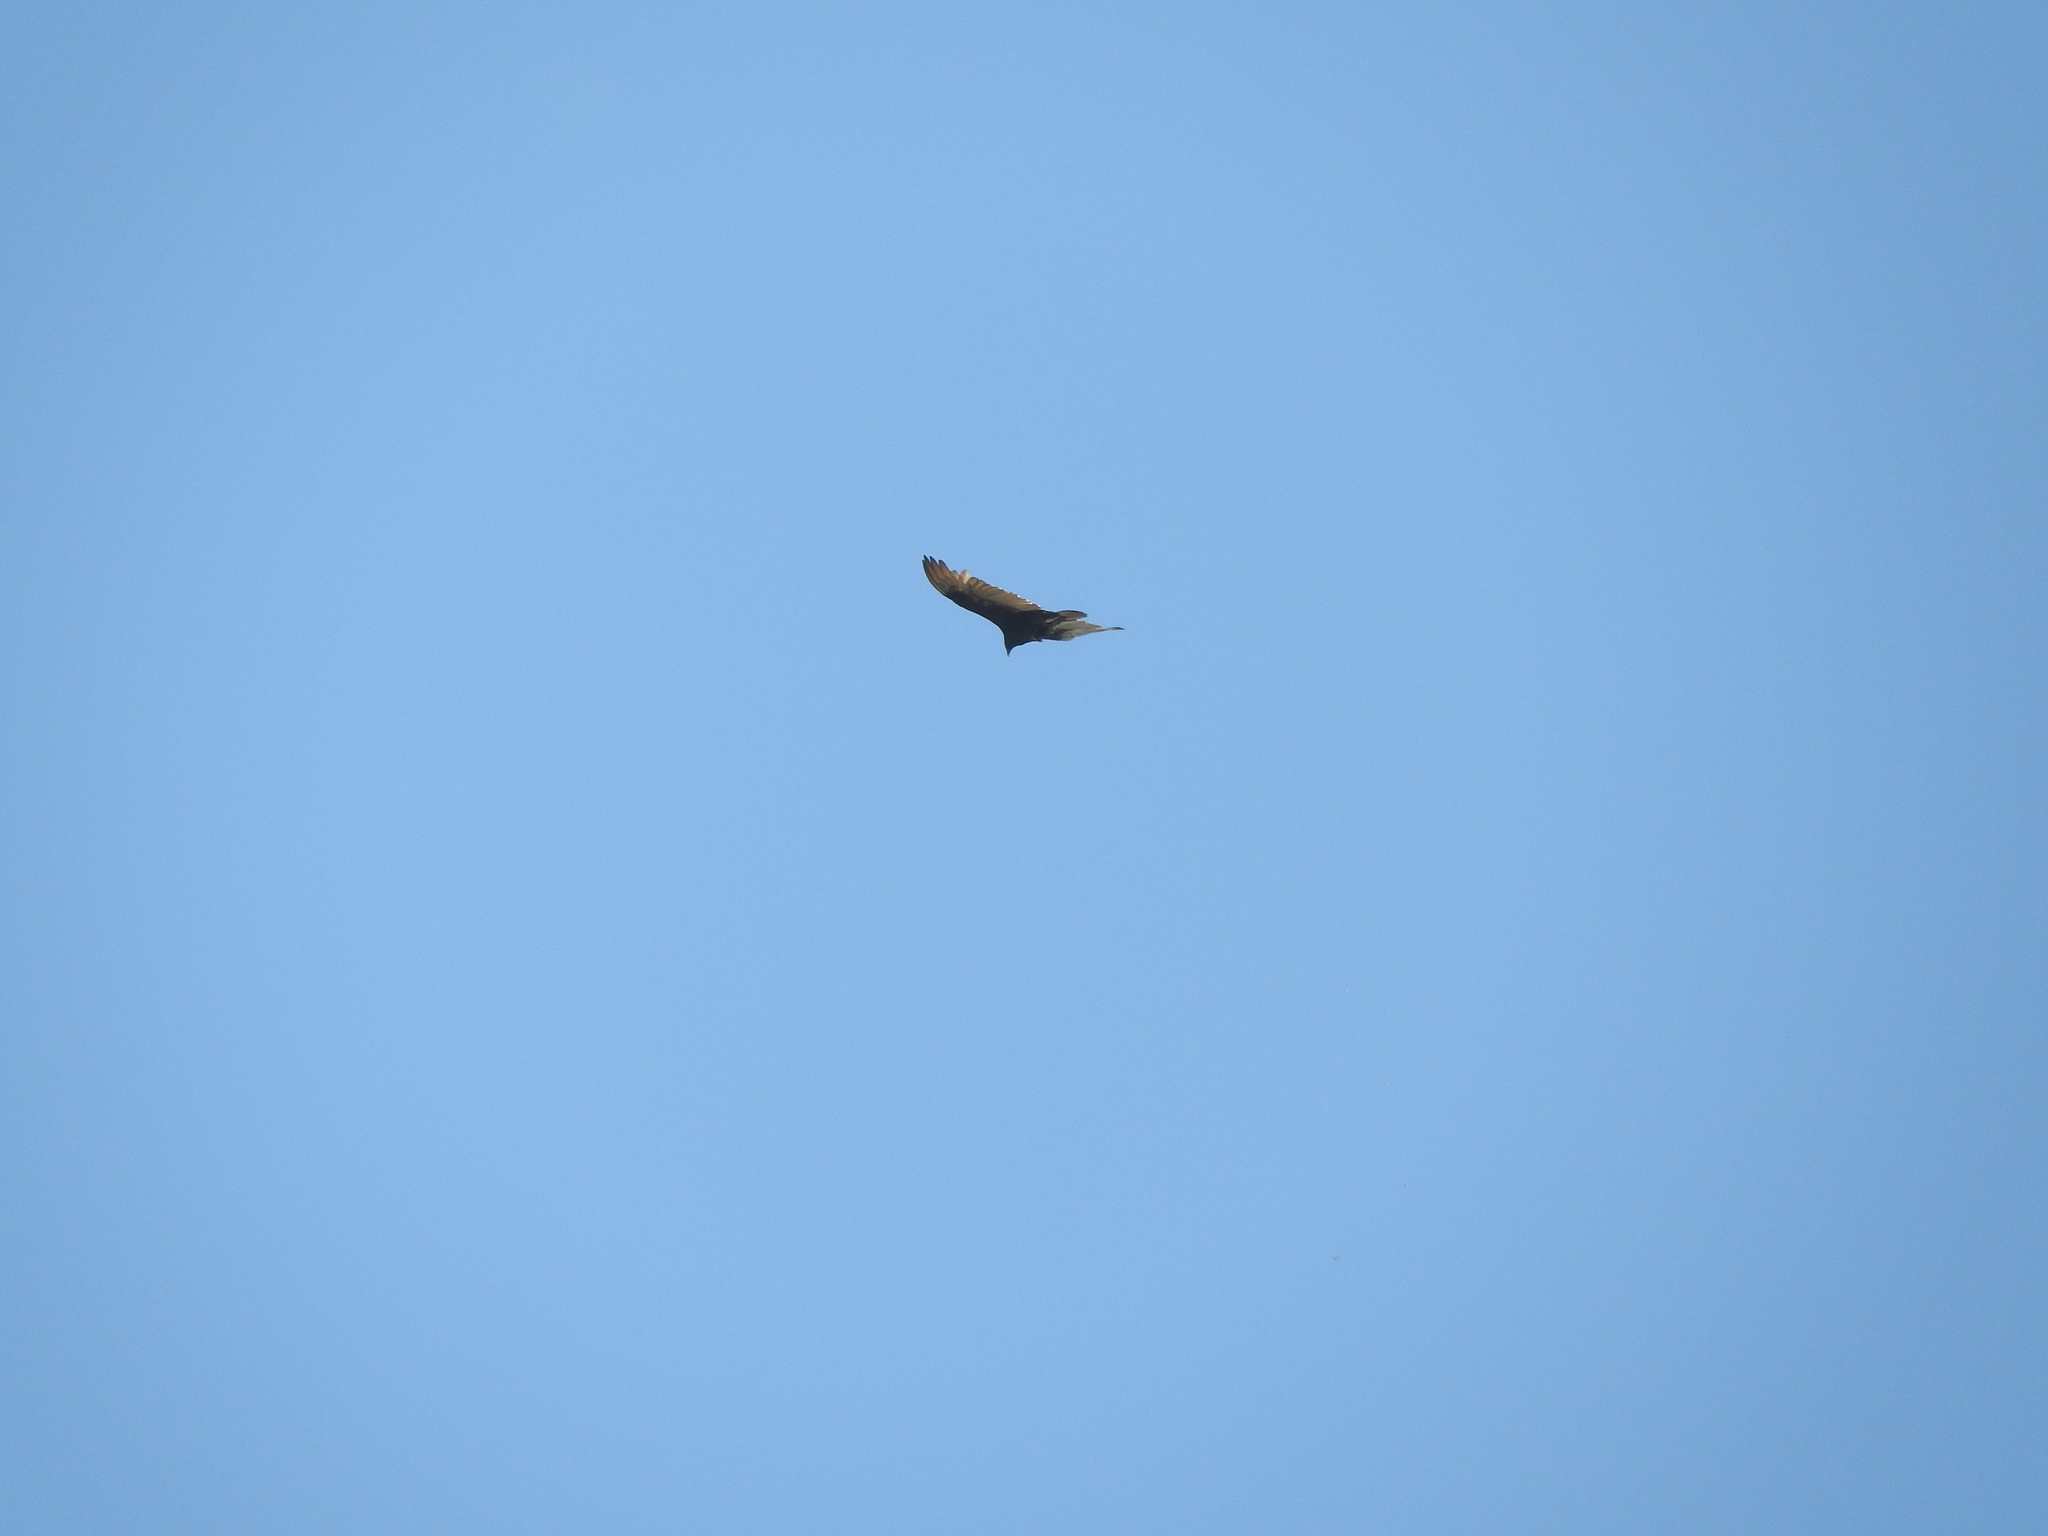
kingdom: Animalia
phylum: Chordata
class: Aves
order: Accipitriformes
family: Cathartidae
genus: Cathartes
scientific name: Cathartes aura
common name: Turkey vulture
